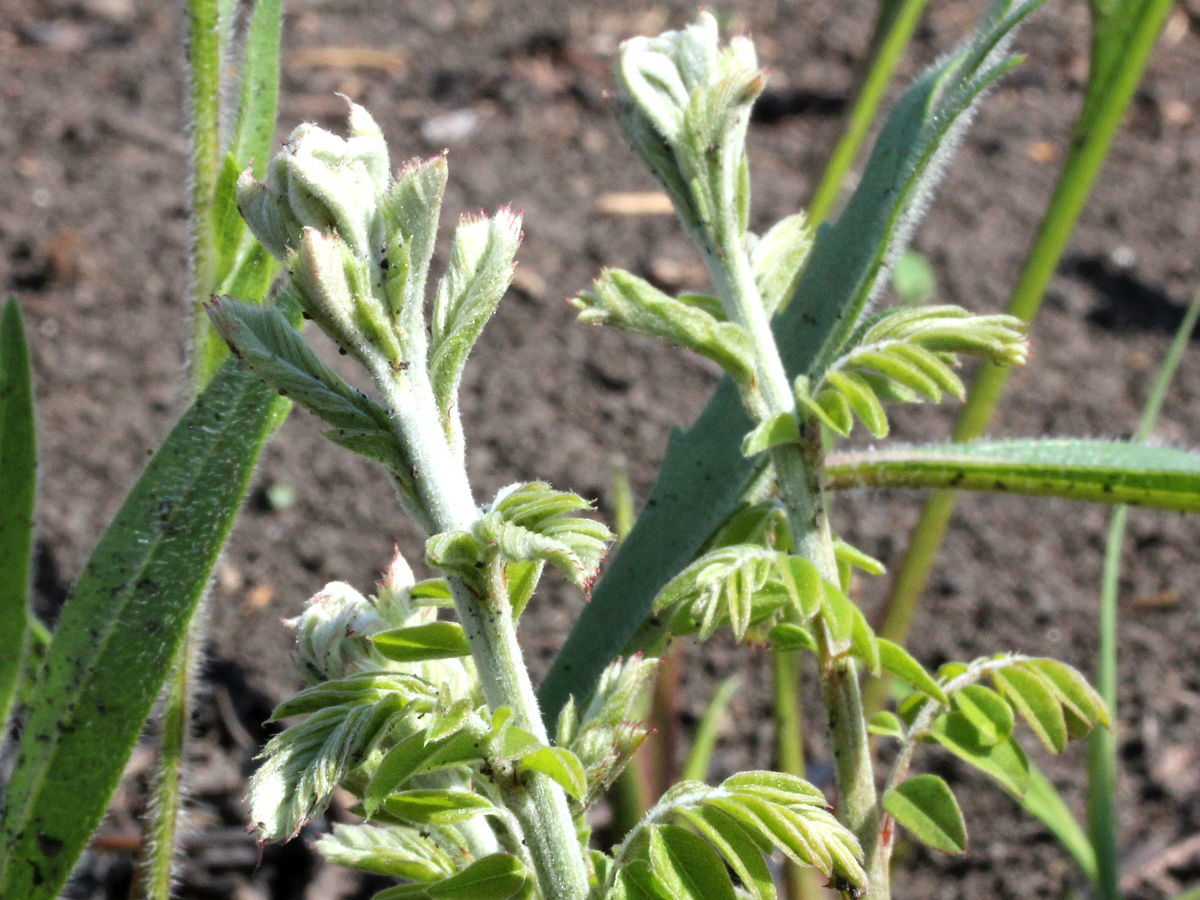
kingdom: Plantae
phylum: Tracheophyta
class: Magnoliopsida
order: Fabales
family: Fabaceae
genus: Amorpha
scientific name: Amorpha canescens
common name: Leadplant
